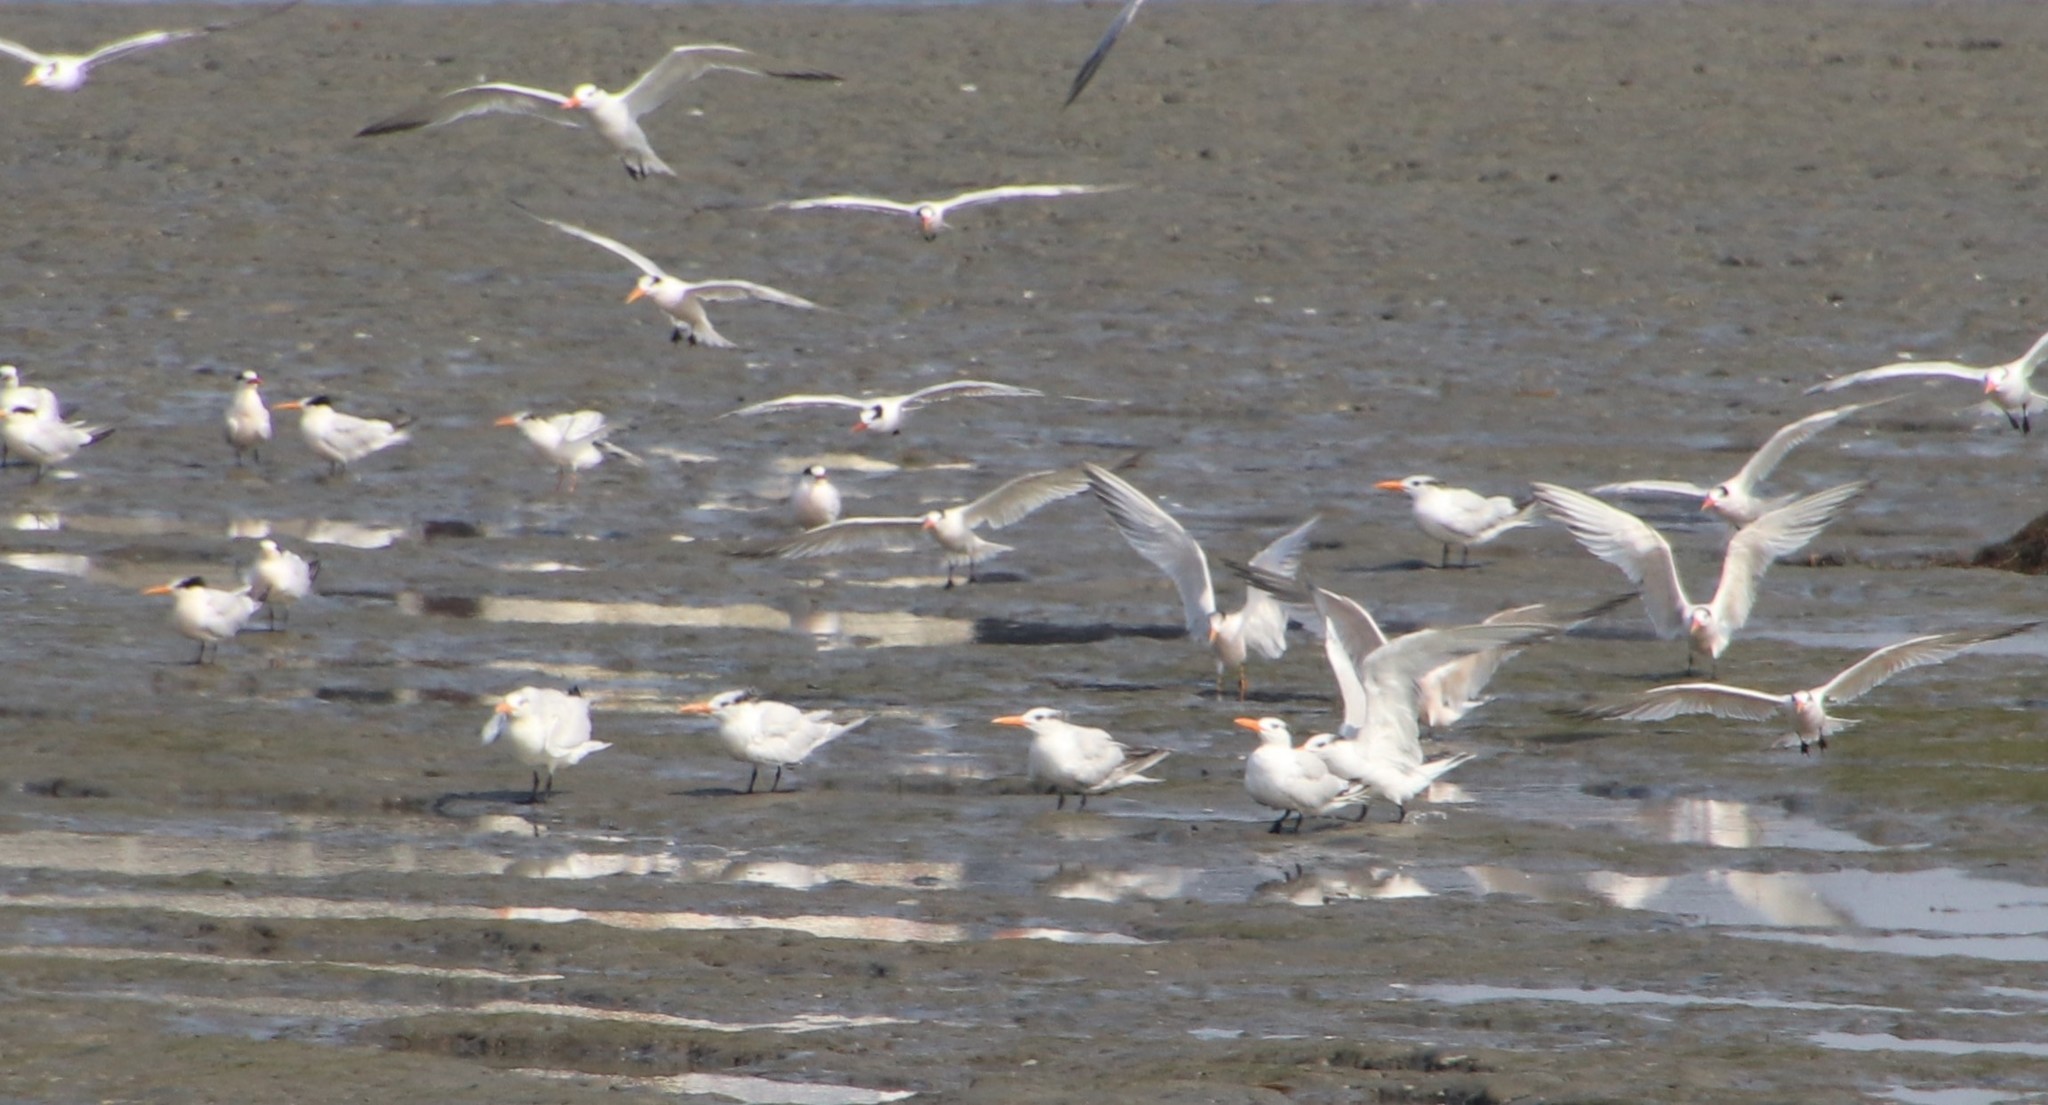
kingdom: Animalia
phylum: Chordata
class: Aves
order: Charadriiformes
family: Laridae
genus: Thalasseus
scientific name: Thalasseus maximus
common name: Royal tern
